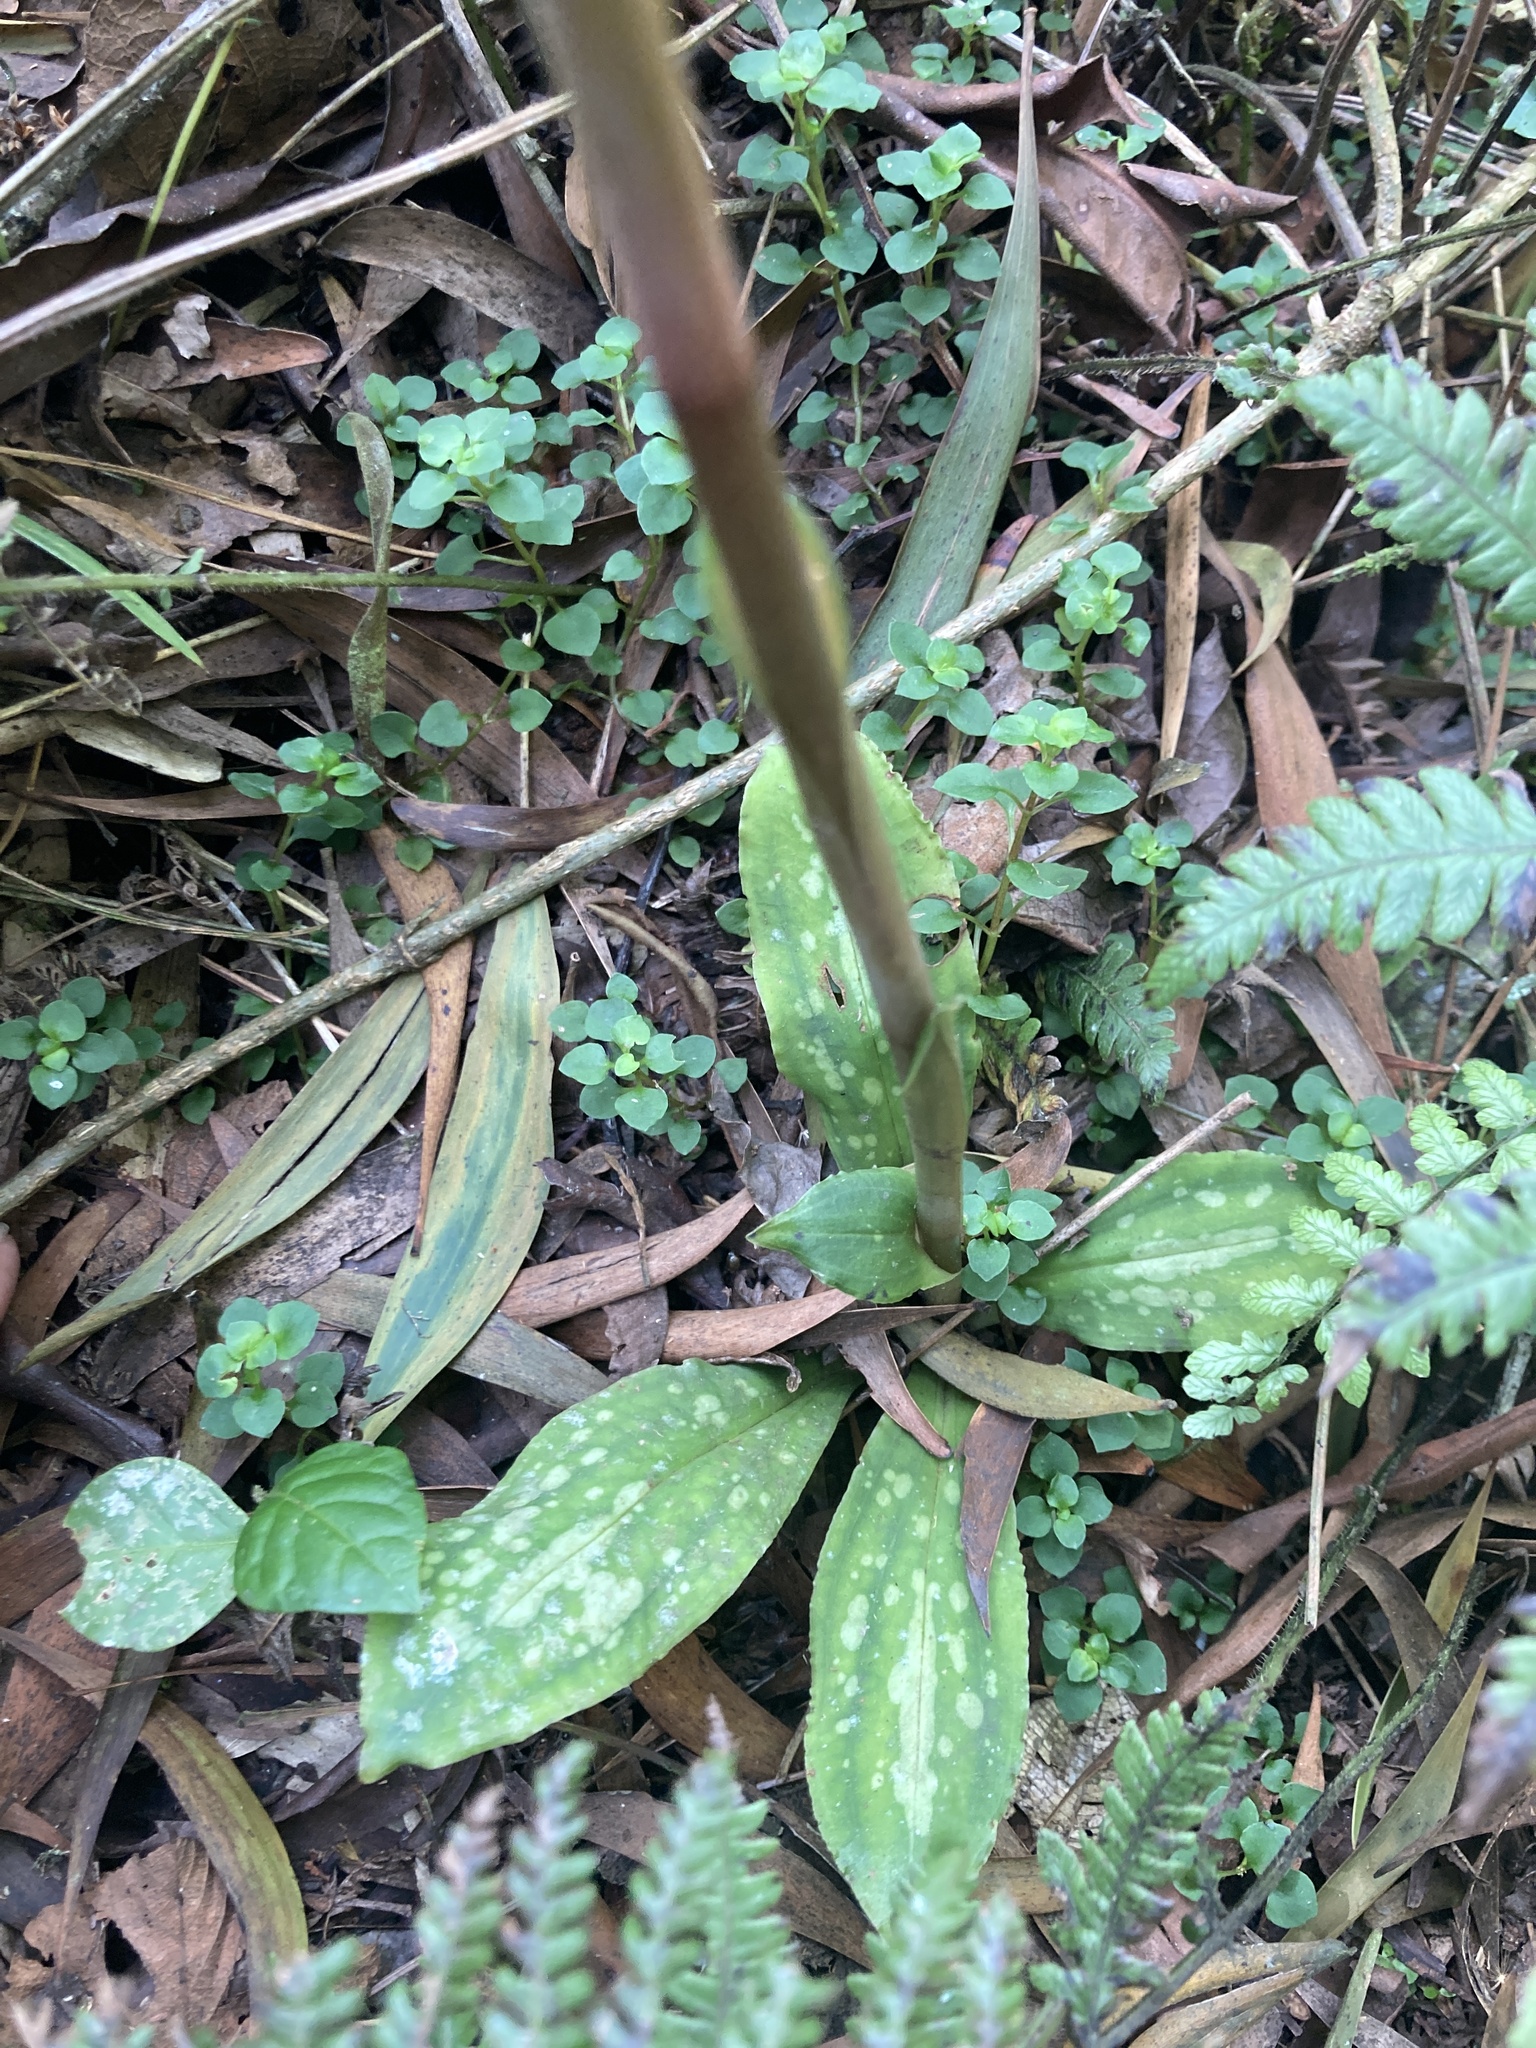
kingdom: Plantae
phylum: Tracheophyta
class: Liliopsida
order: Asparagales
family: Orchidaceae
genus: Stenorrhynchos
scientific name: Stenorrhynchos albidomaculatum
